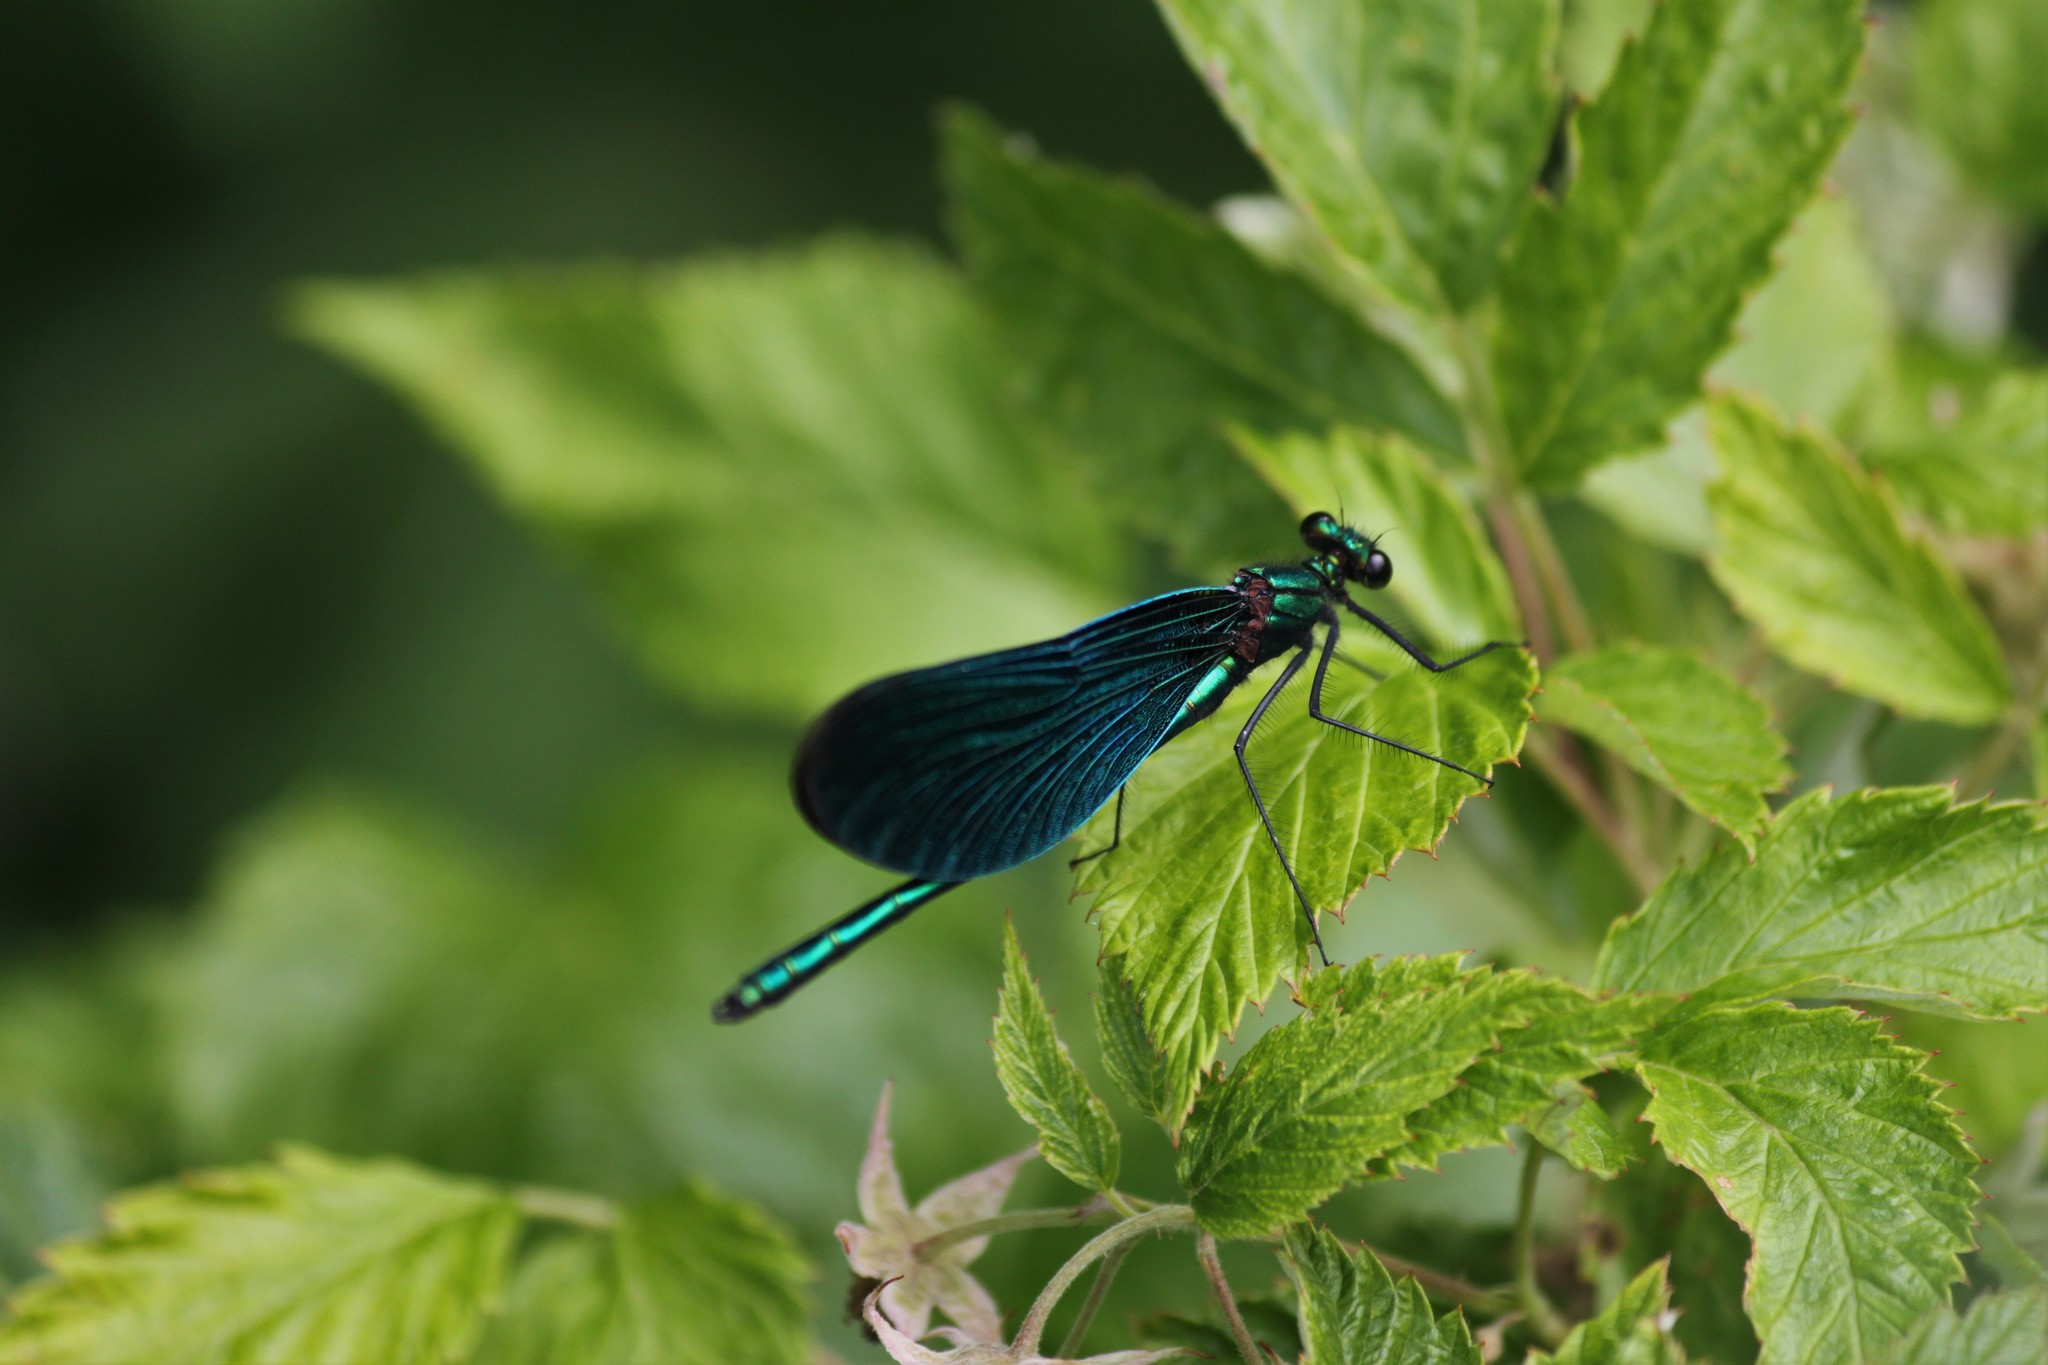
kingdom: Animalia
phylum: Arthropoda
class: Insecta
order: Odonata
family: Calopterygidae
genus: Calopteryx
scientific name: Calopteryx virgo
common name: Beautiful demoiselle
